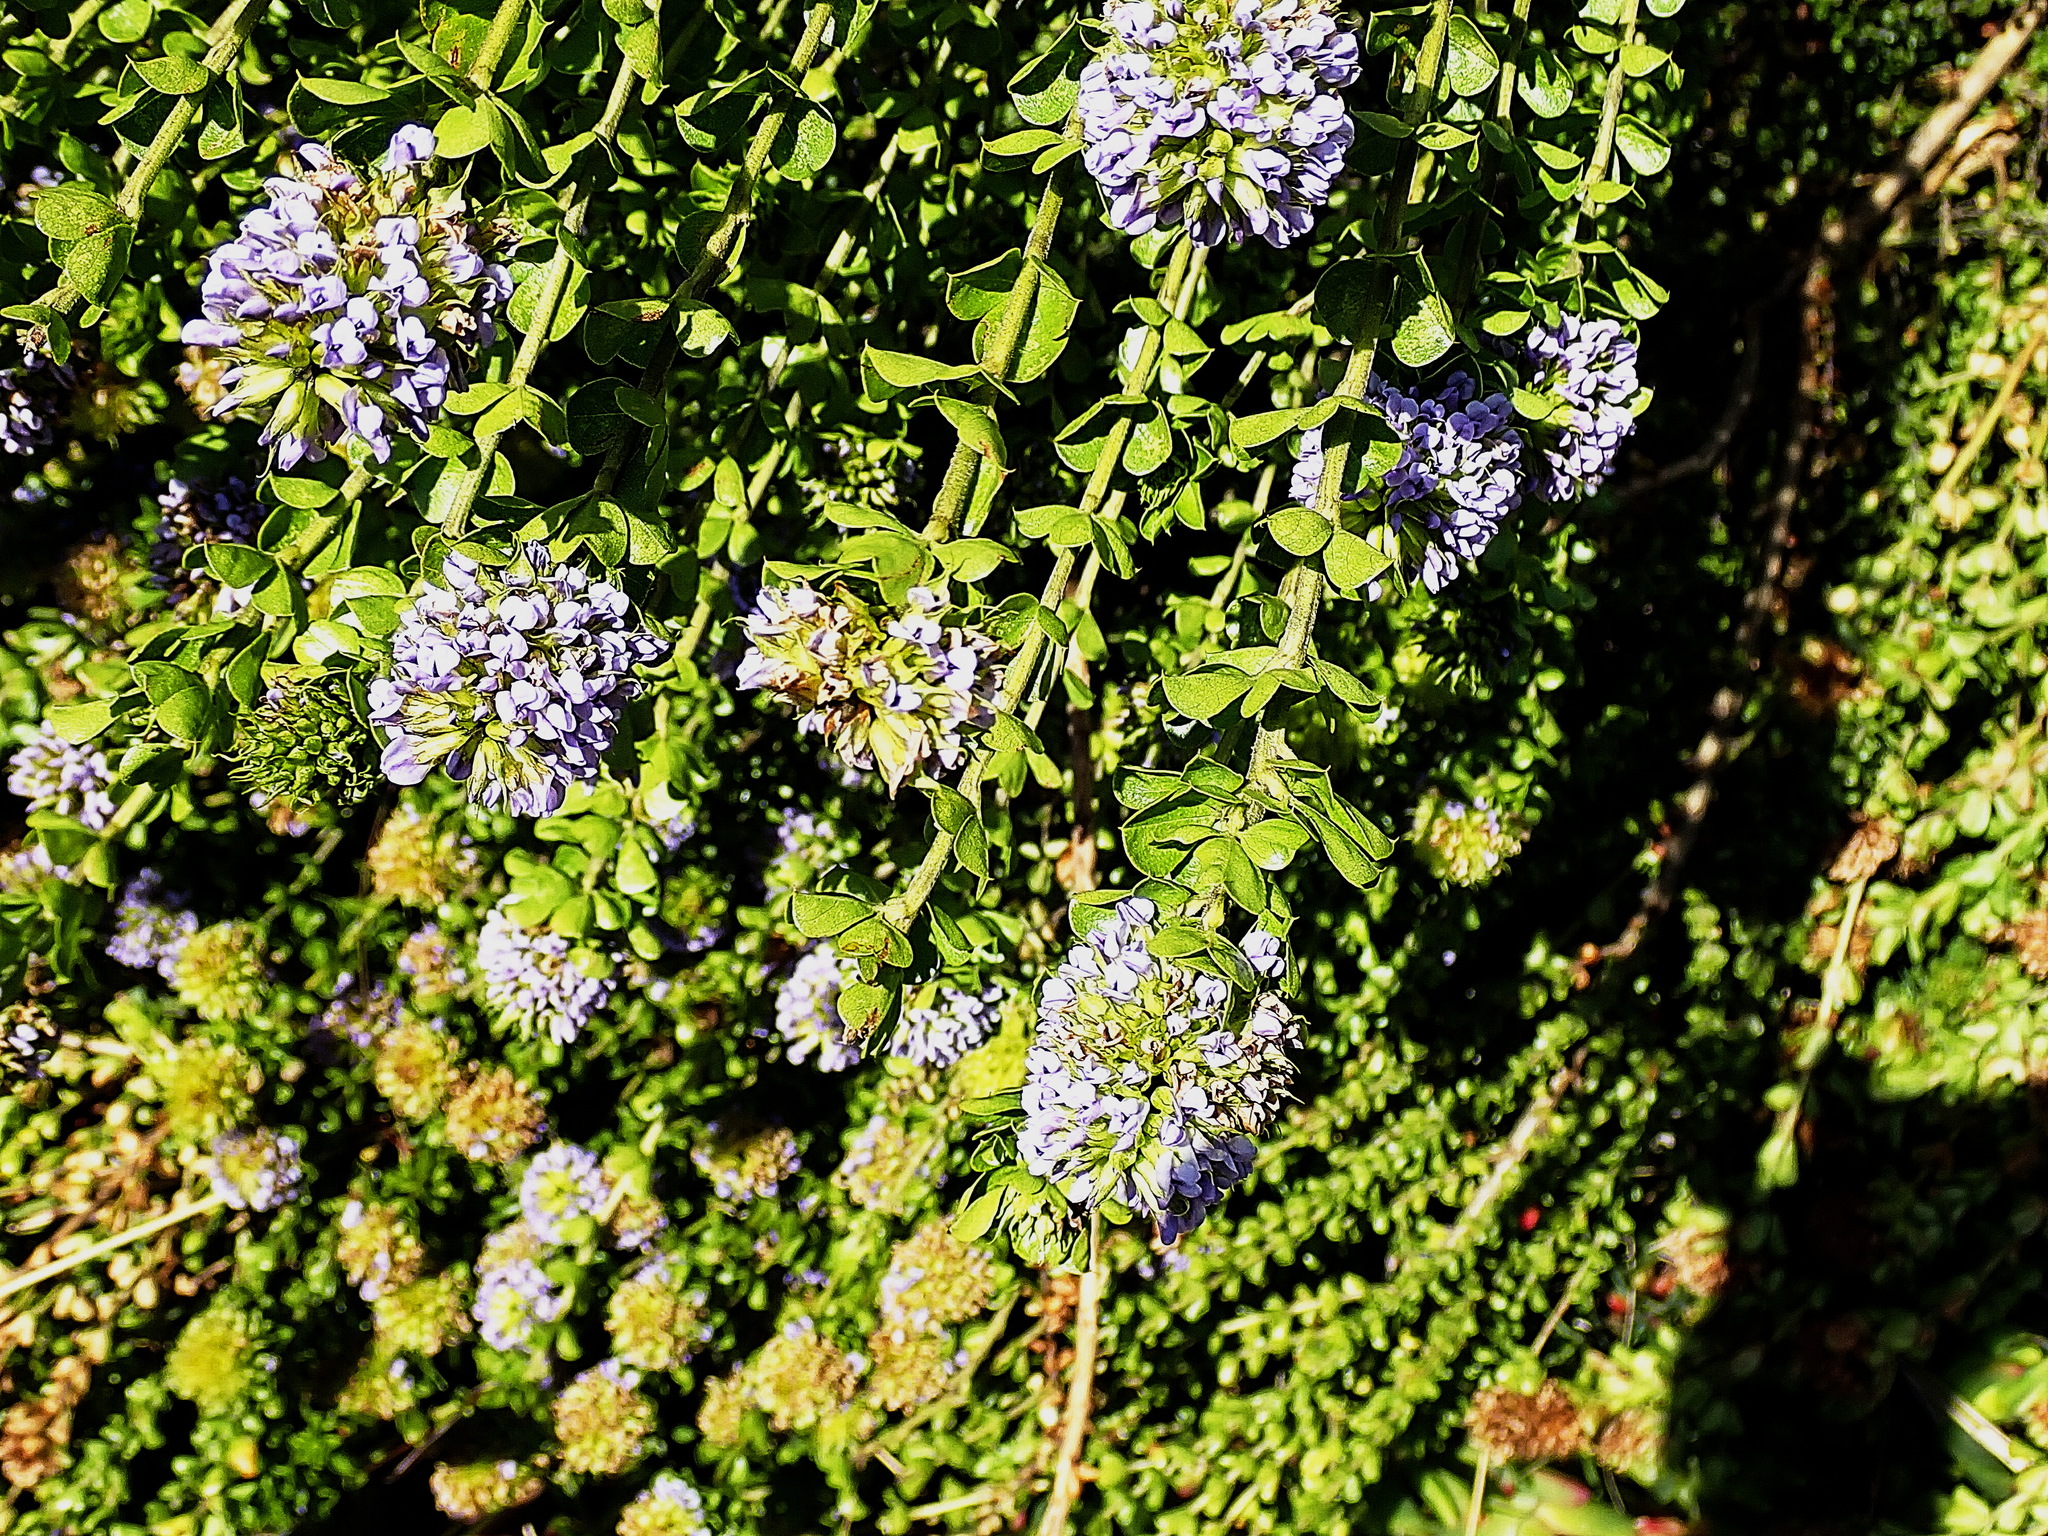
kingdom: Plantae
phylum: Tracheophyta
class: Magnoliopsida
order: Fabales
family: Fabaceae
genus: Psoralea
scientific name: Psoralea acuminata
